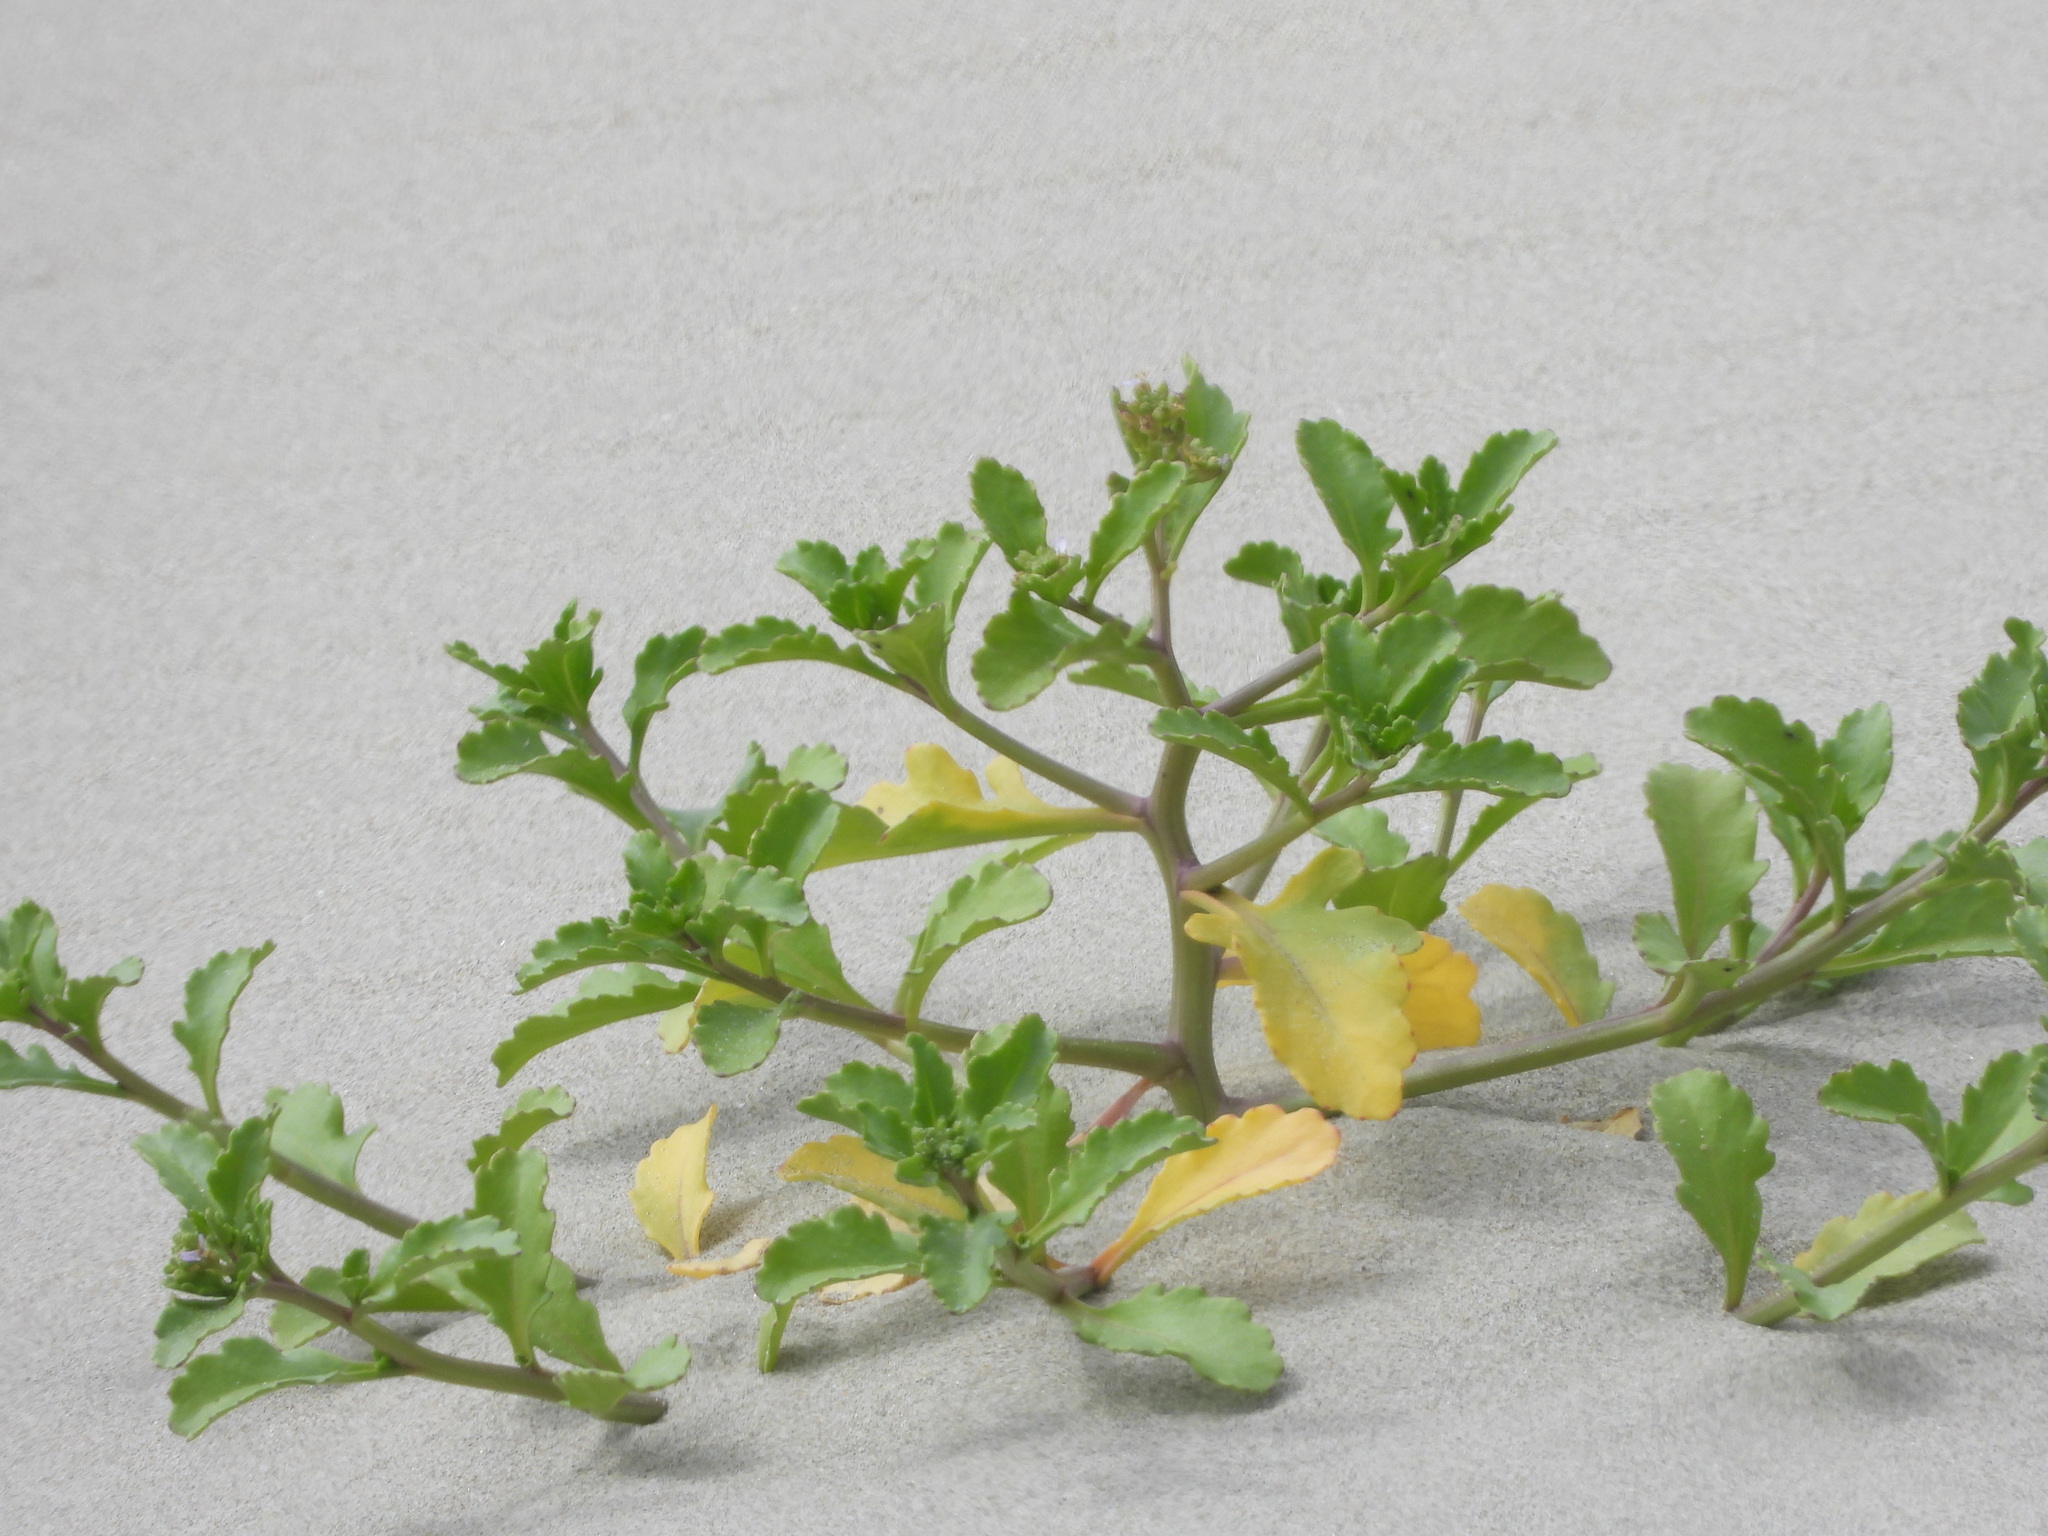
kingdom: Plantae
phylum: Tracheophyta
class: Magnoliopsida
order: Brassicales
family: Brassicaceae
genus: Cakile
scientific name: Cakile edentula
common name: American sea rocket
